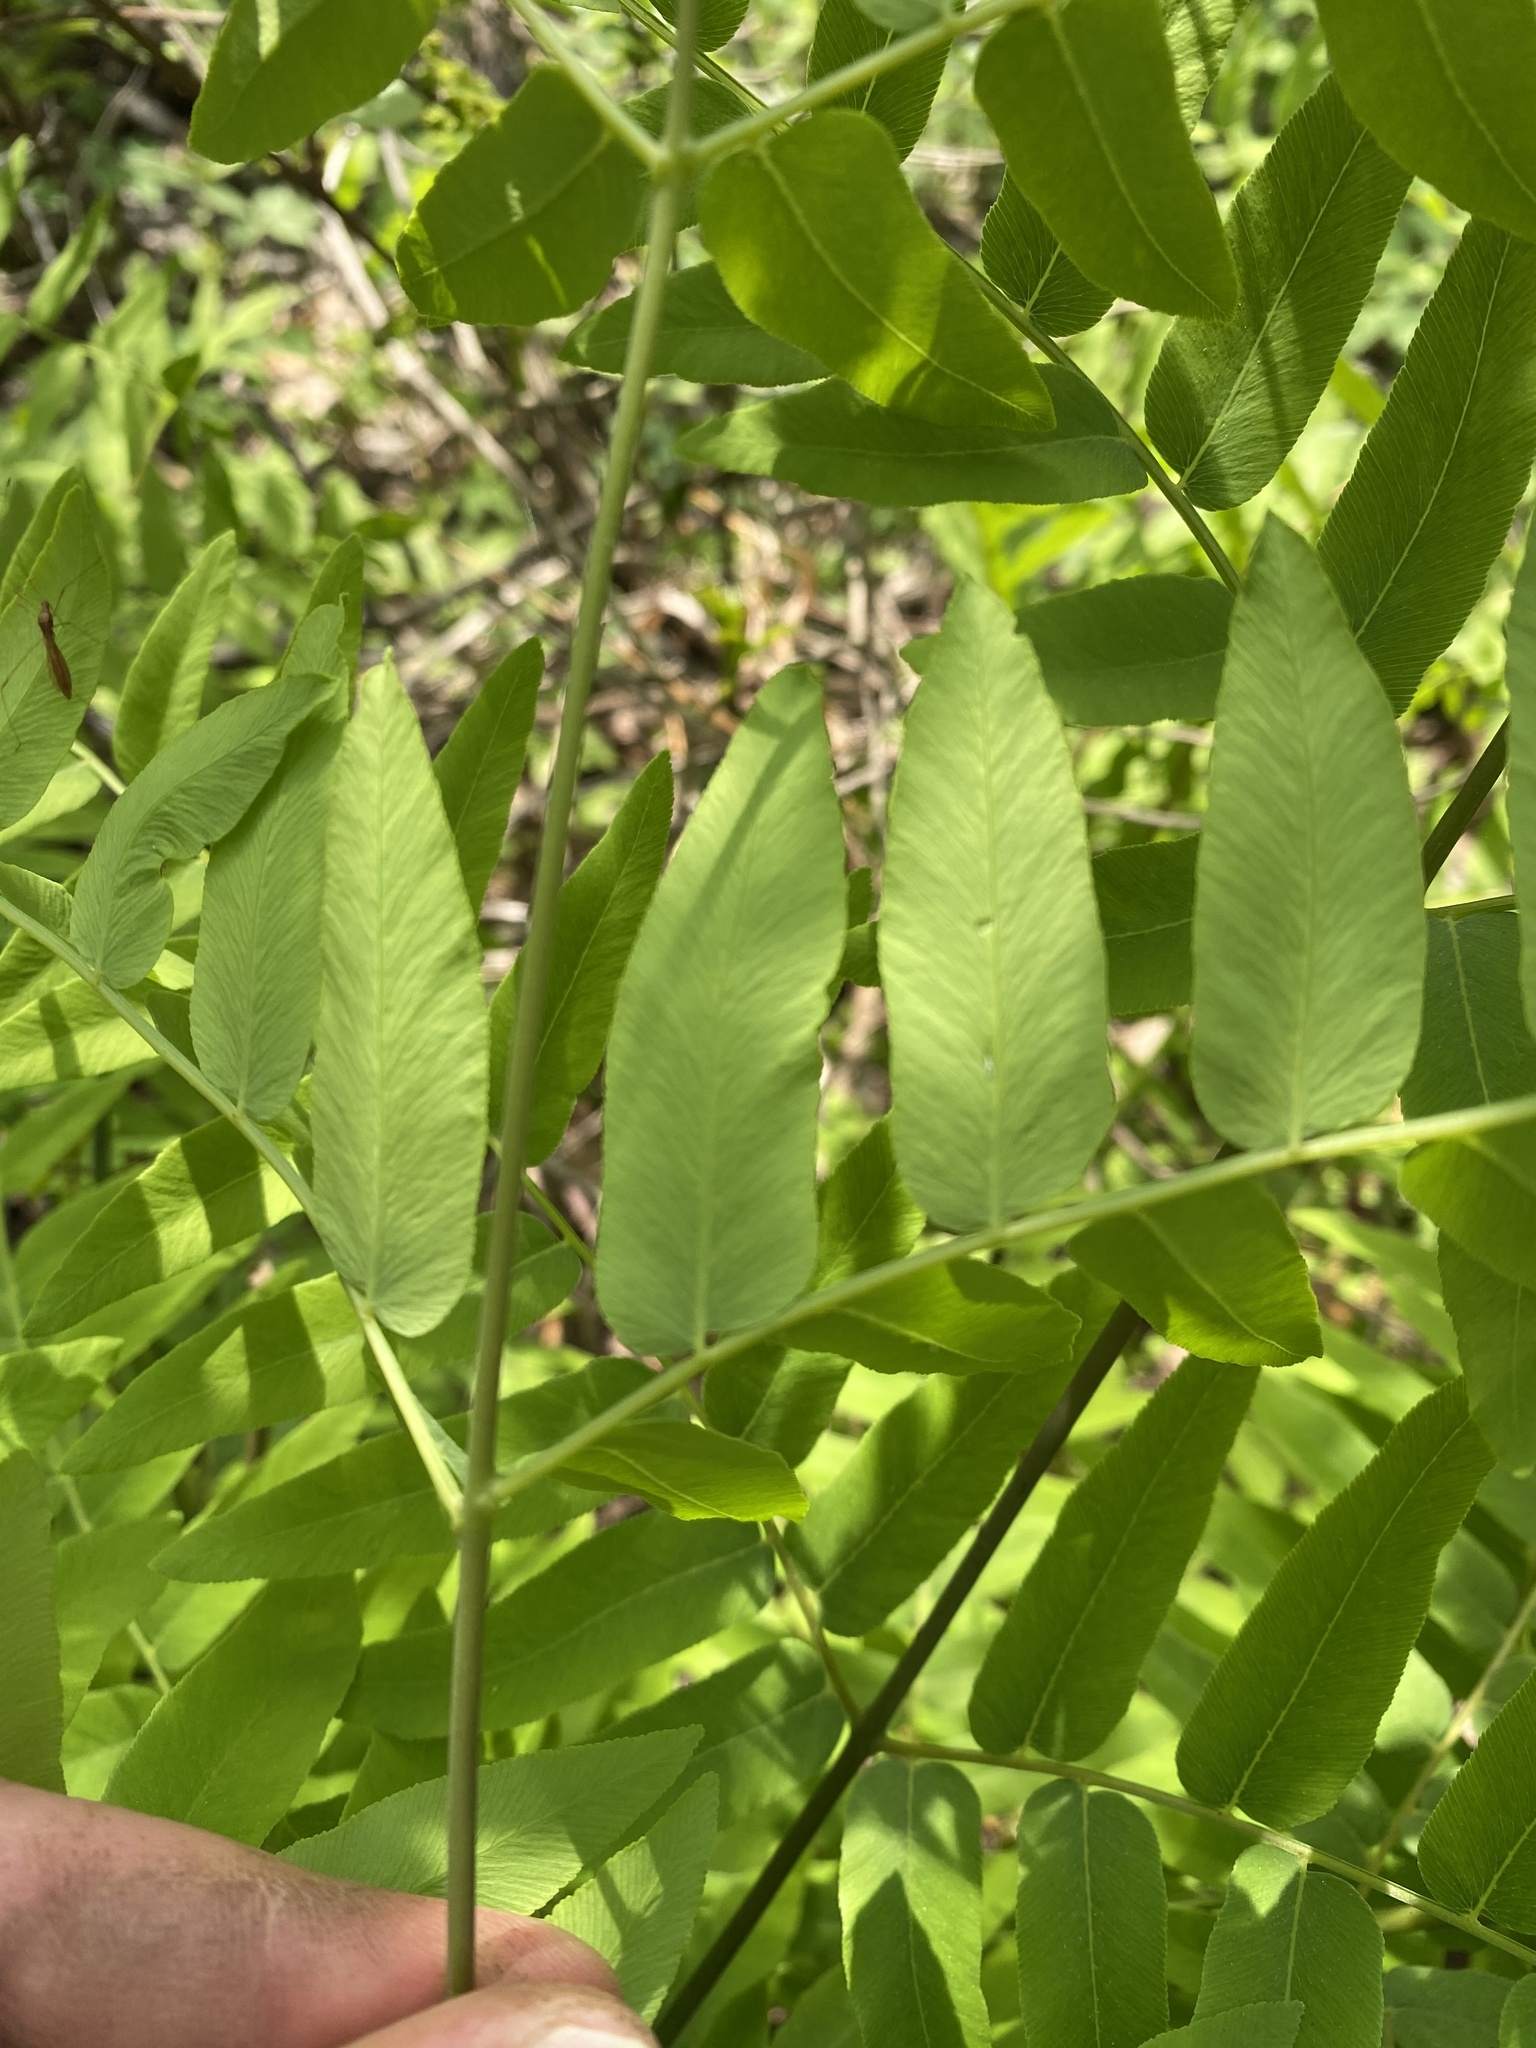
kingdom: Plantae
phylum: Tracheophyta
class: Polypodiopsida
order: Osmundales
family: Osmundaceae
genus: Osmunda
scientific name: Osmunda spectabilis
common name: American royal fern
